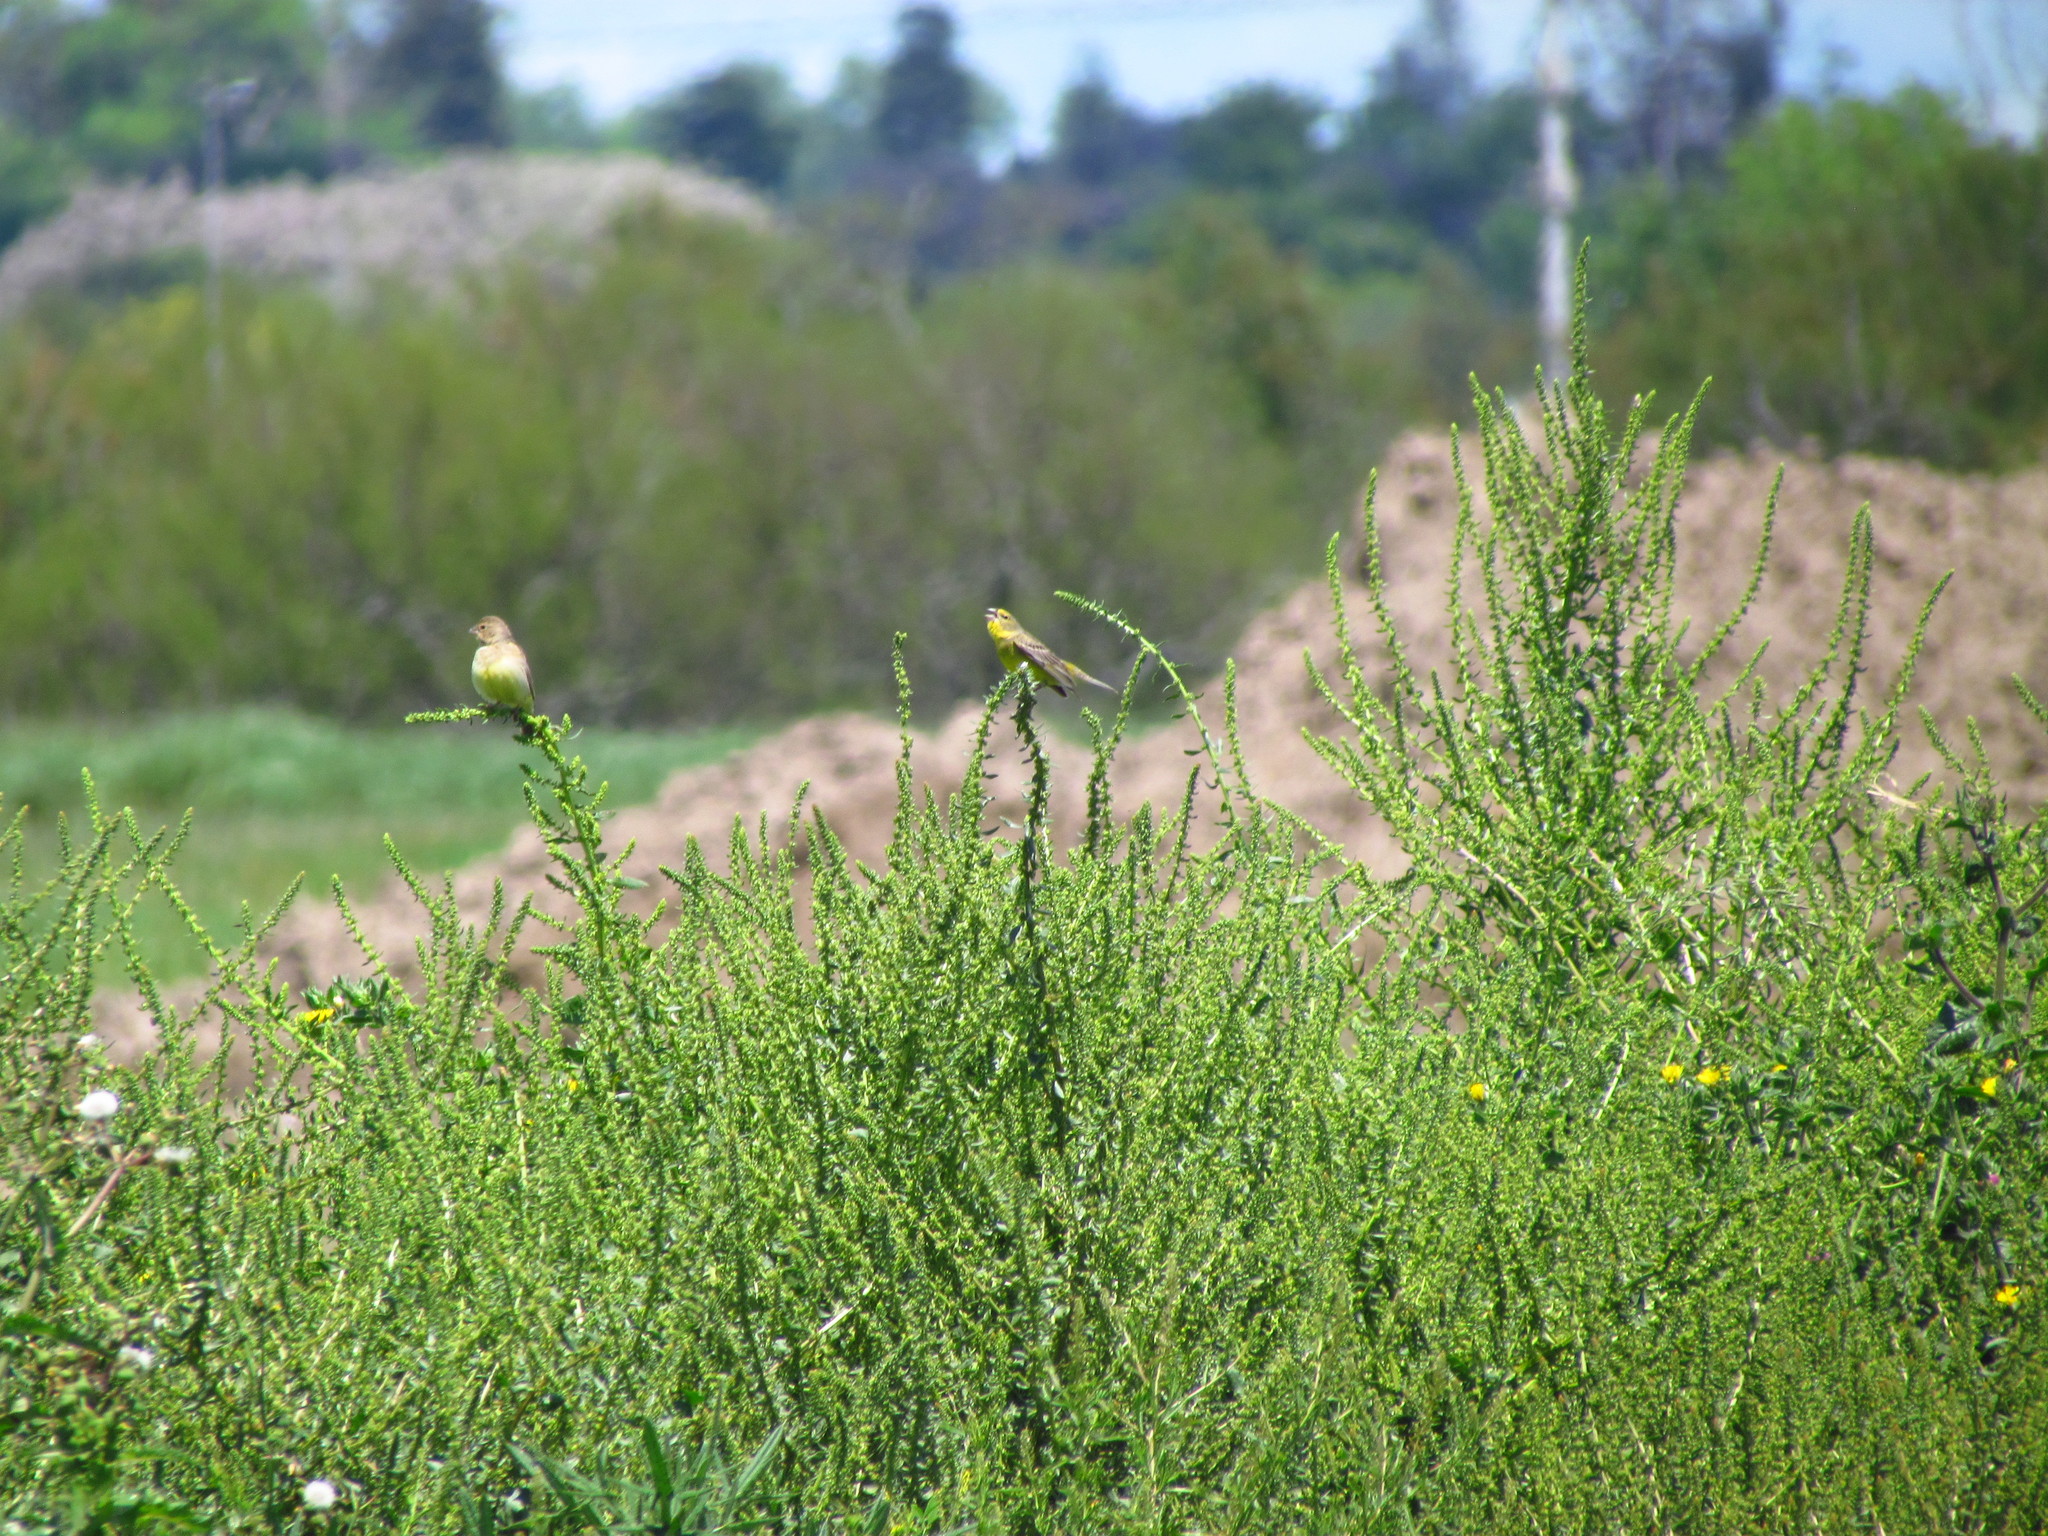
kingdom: Animalia
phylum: Chordata
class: Aves
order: Passeriformes
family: Thraupidae
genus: Sicalis
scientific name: Sicalis luteola
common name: Grassland yellow-finch
